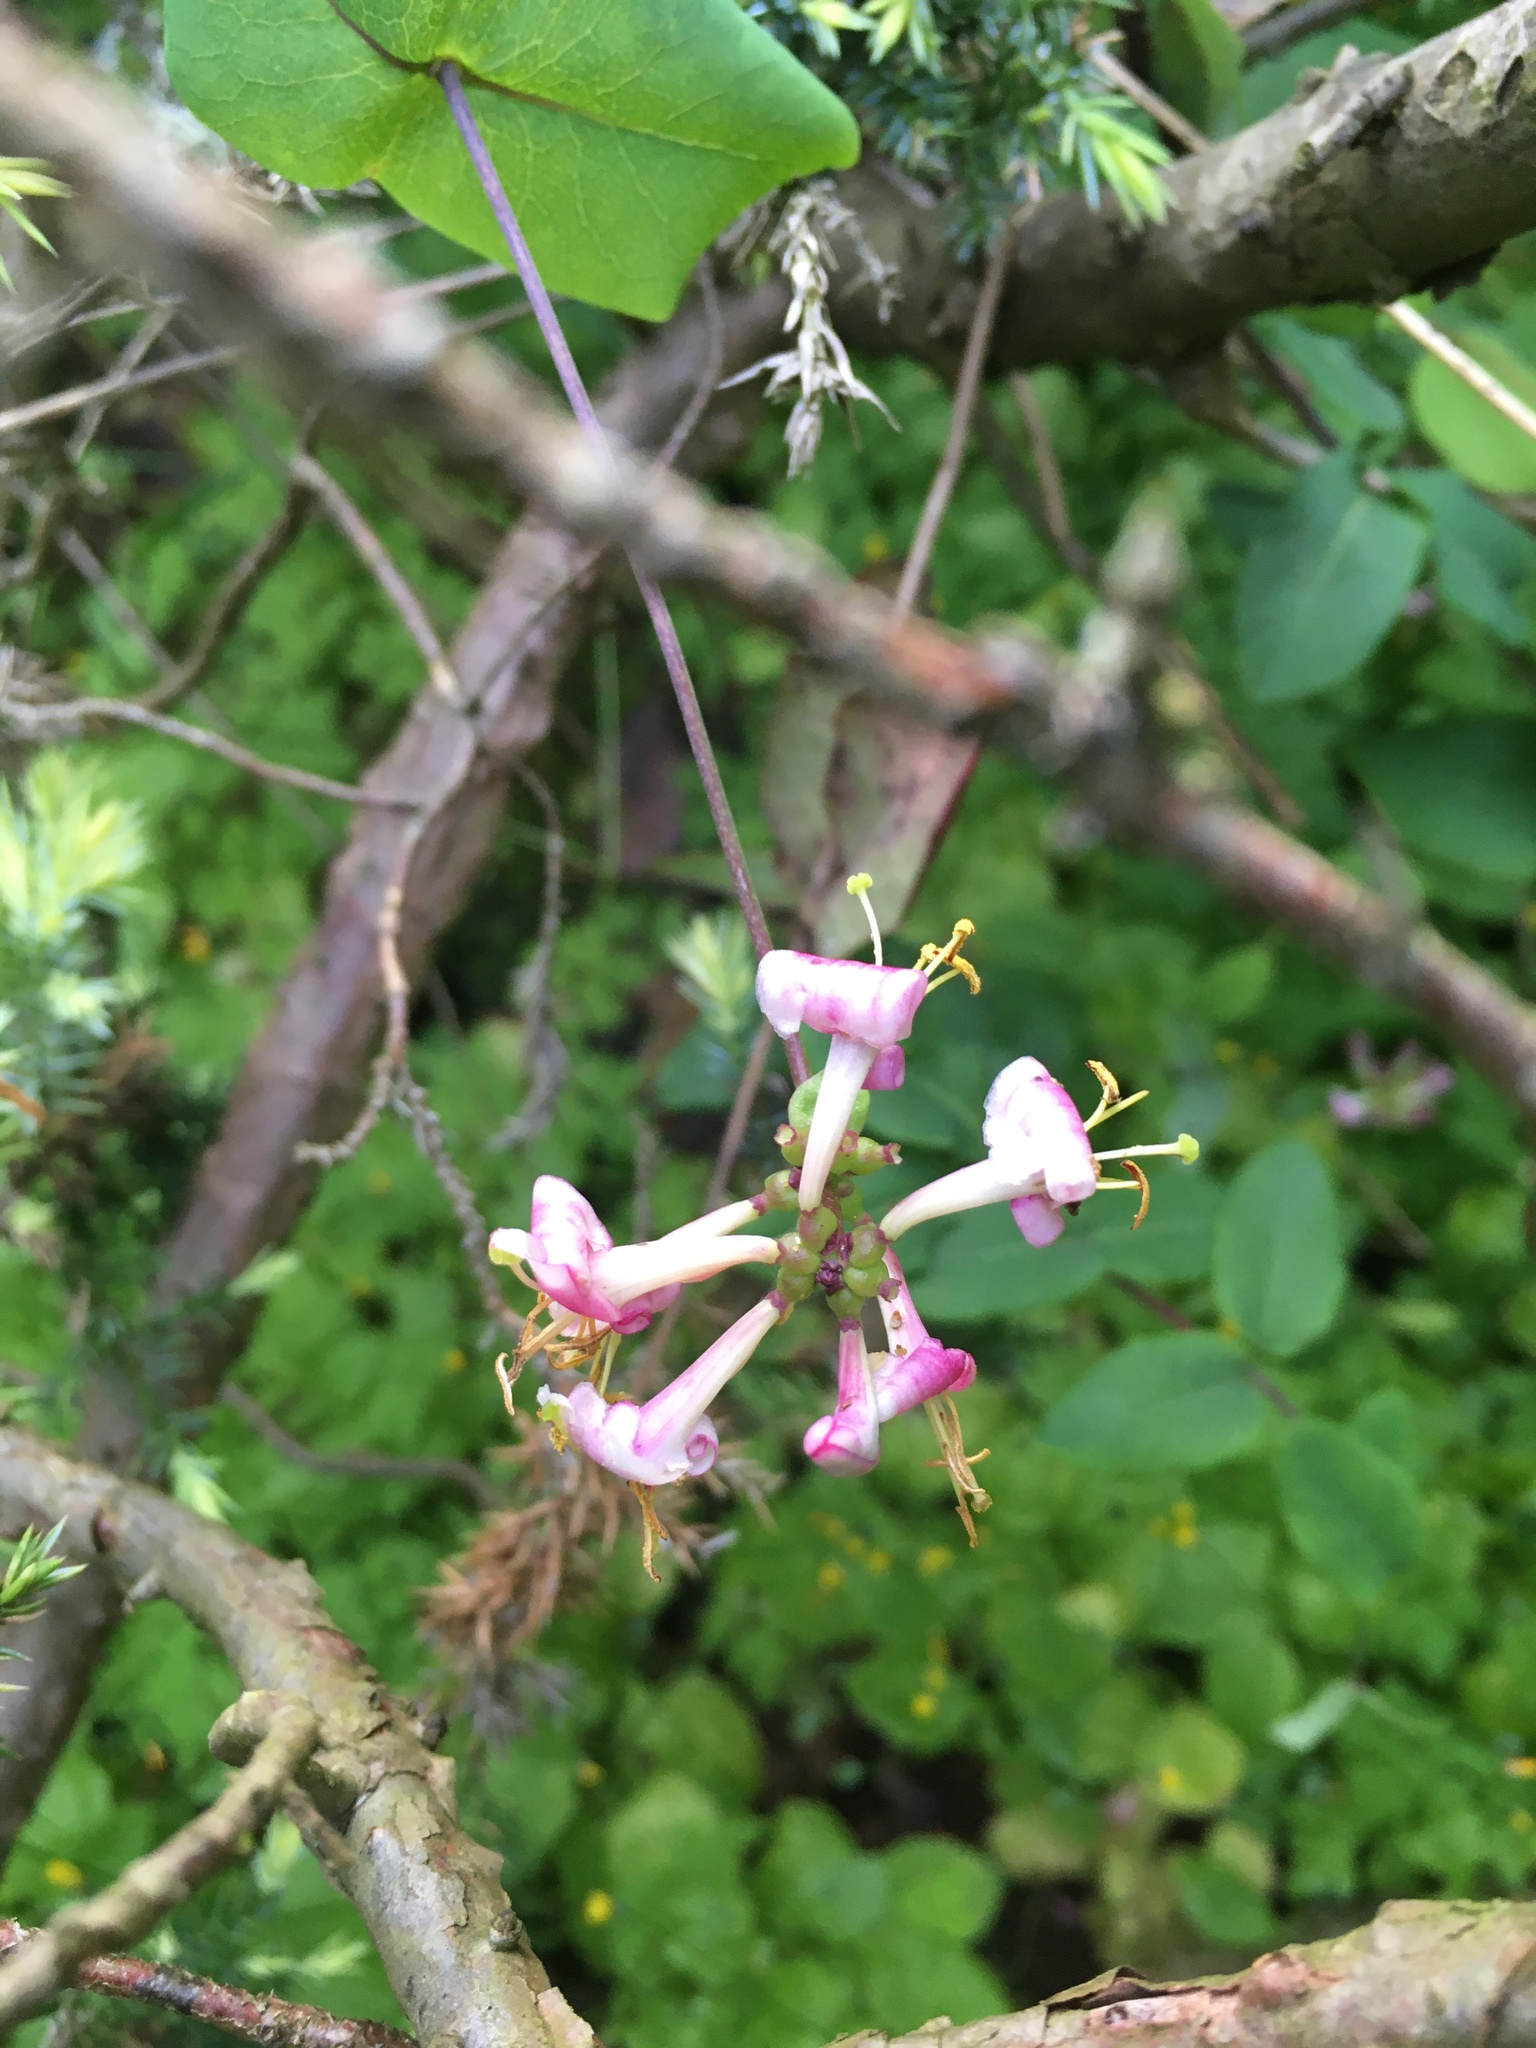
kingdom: Plantae
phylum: Tracheophyta
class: Magnoliopsida
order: Dipsacales
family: Caprifoliaceae
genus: Lonicera
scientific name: Lonicera hispidula
